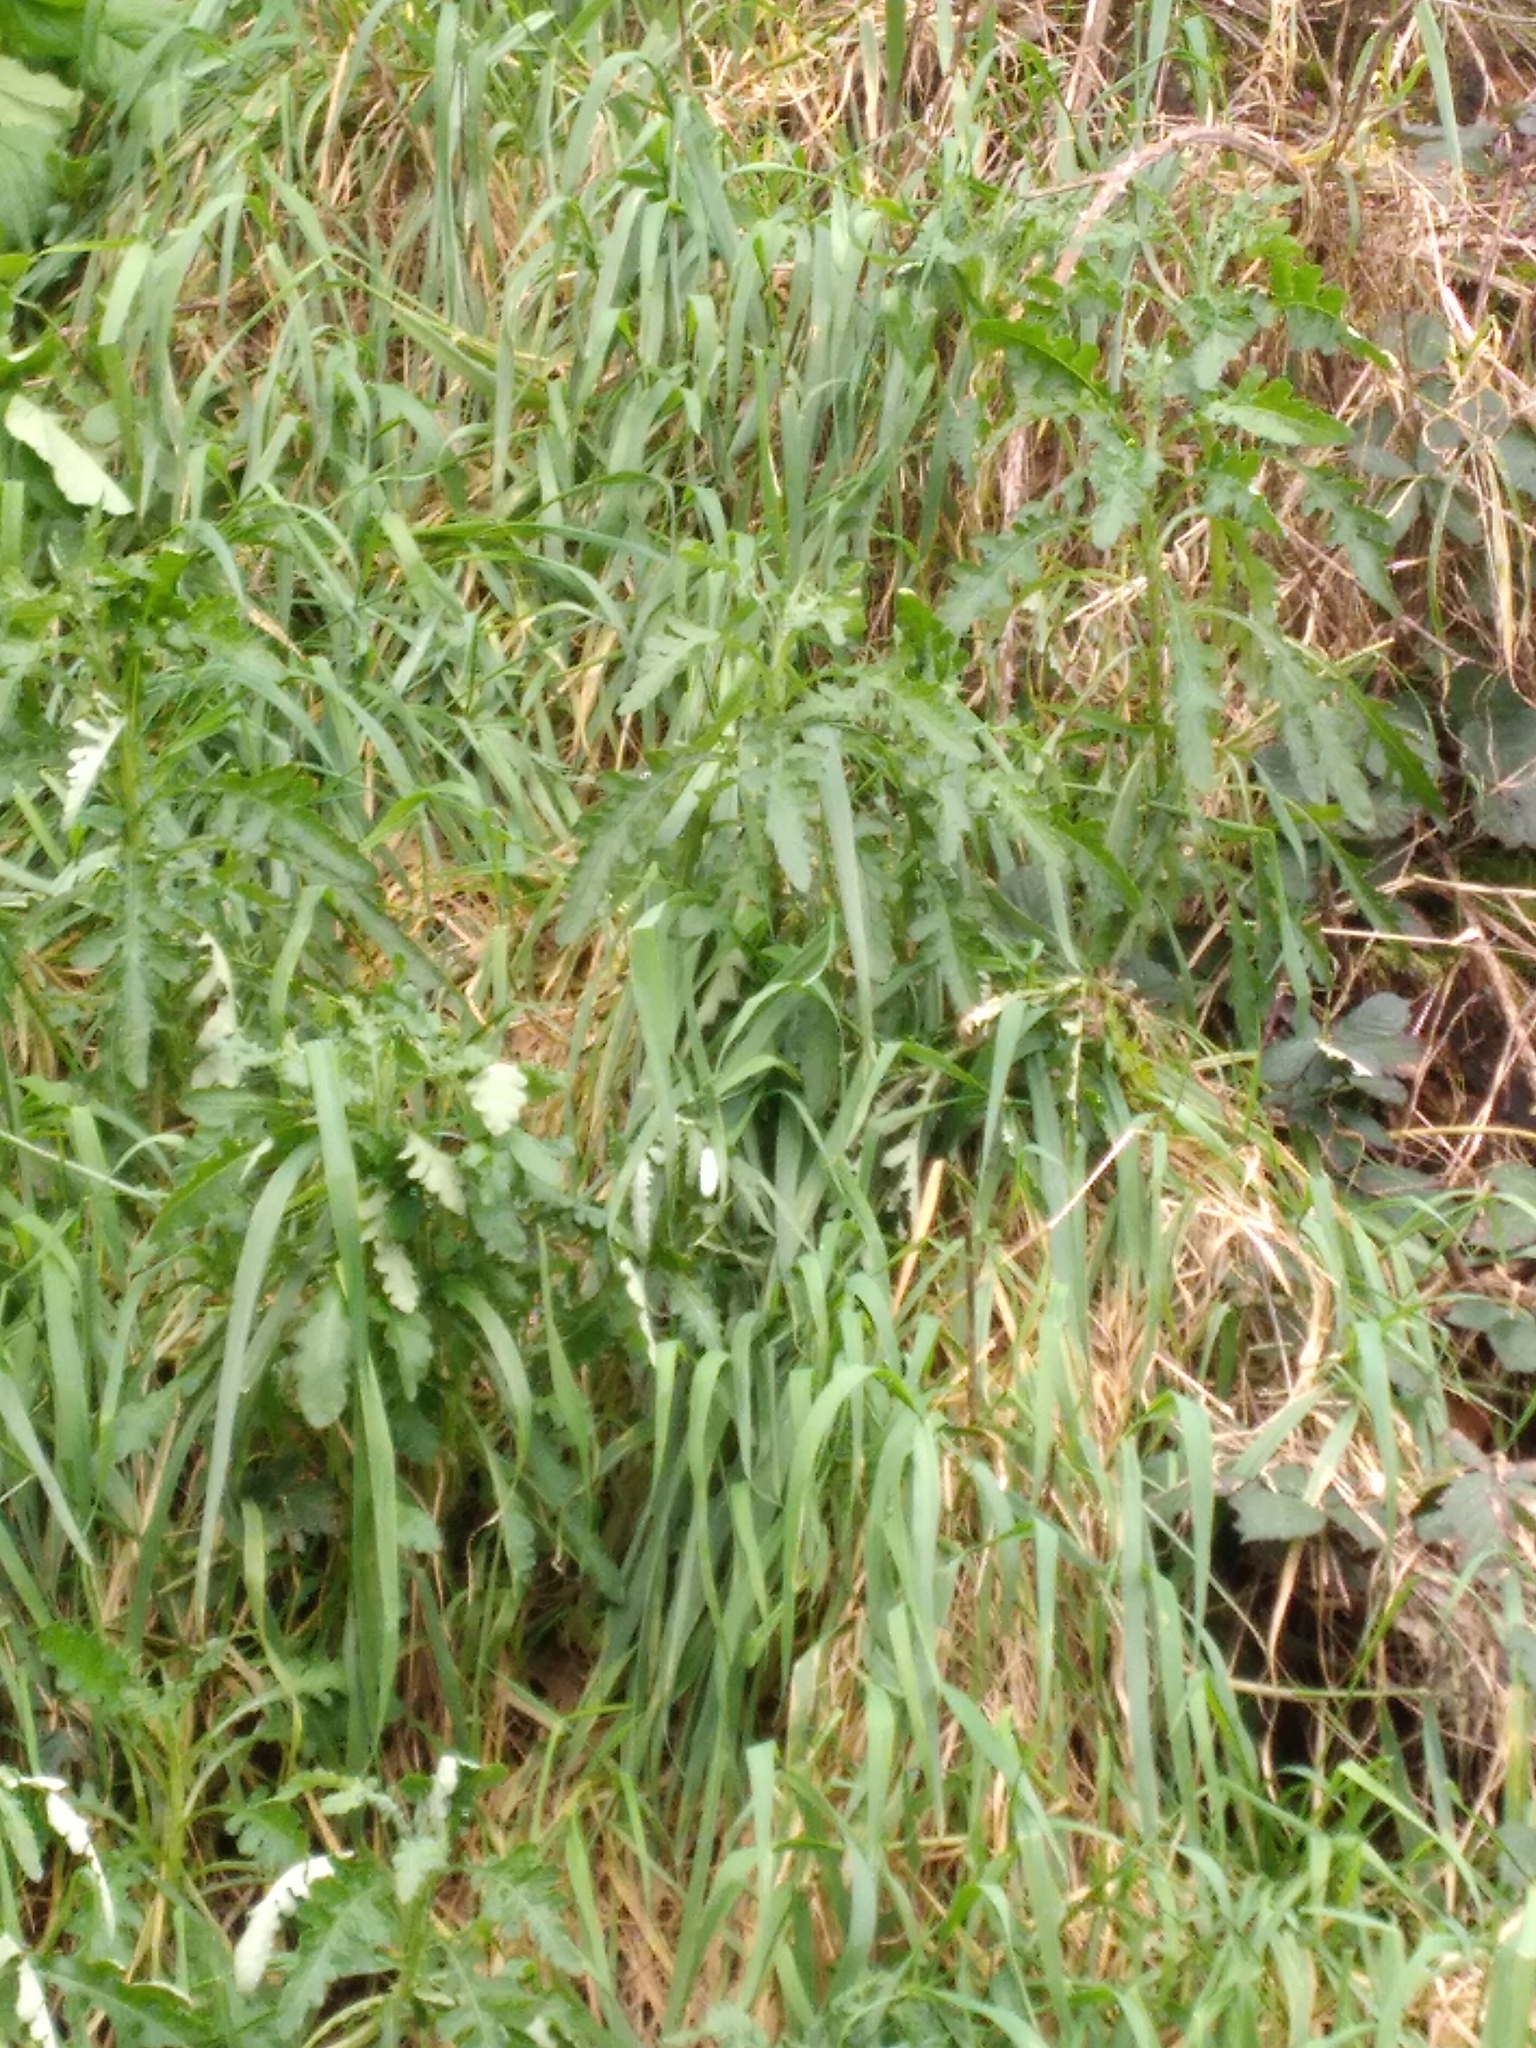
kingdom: Plantae
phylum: Tracheophyta
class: Magnoliopsida
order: Asterales
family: Asteraceae
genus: Senecio
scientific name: Senecio glomeratus
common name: Cutleaf burnweed
